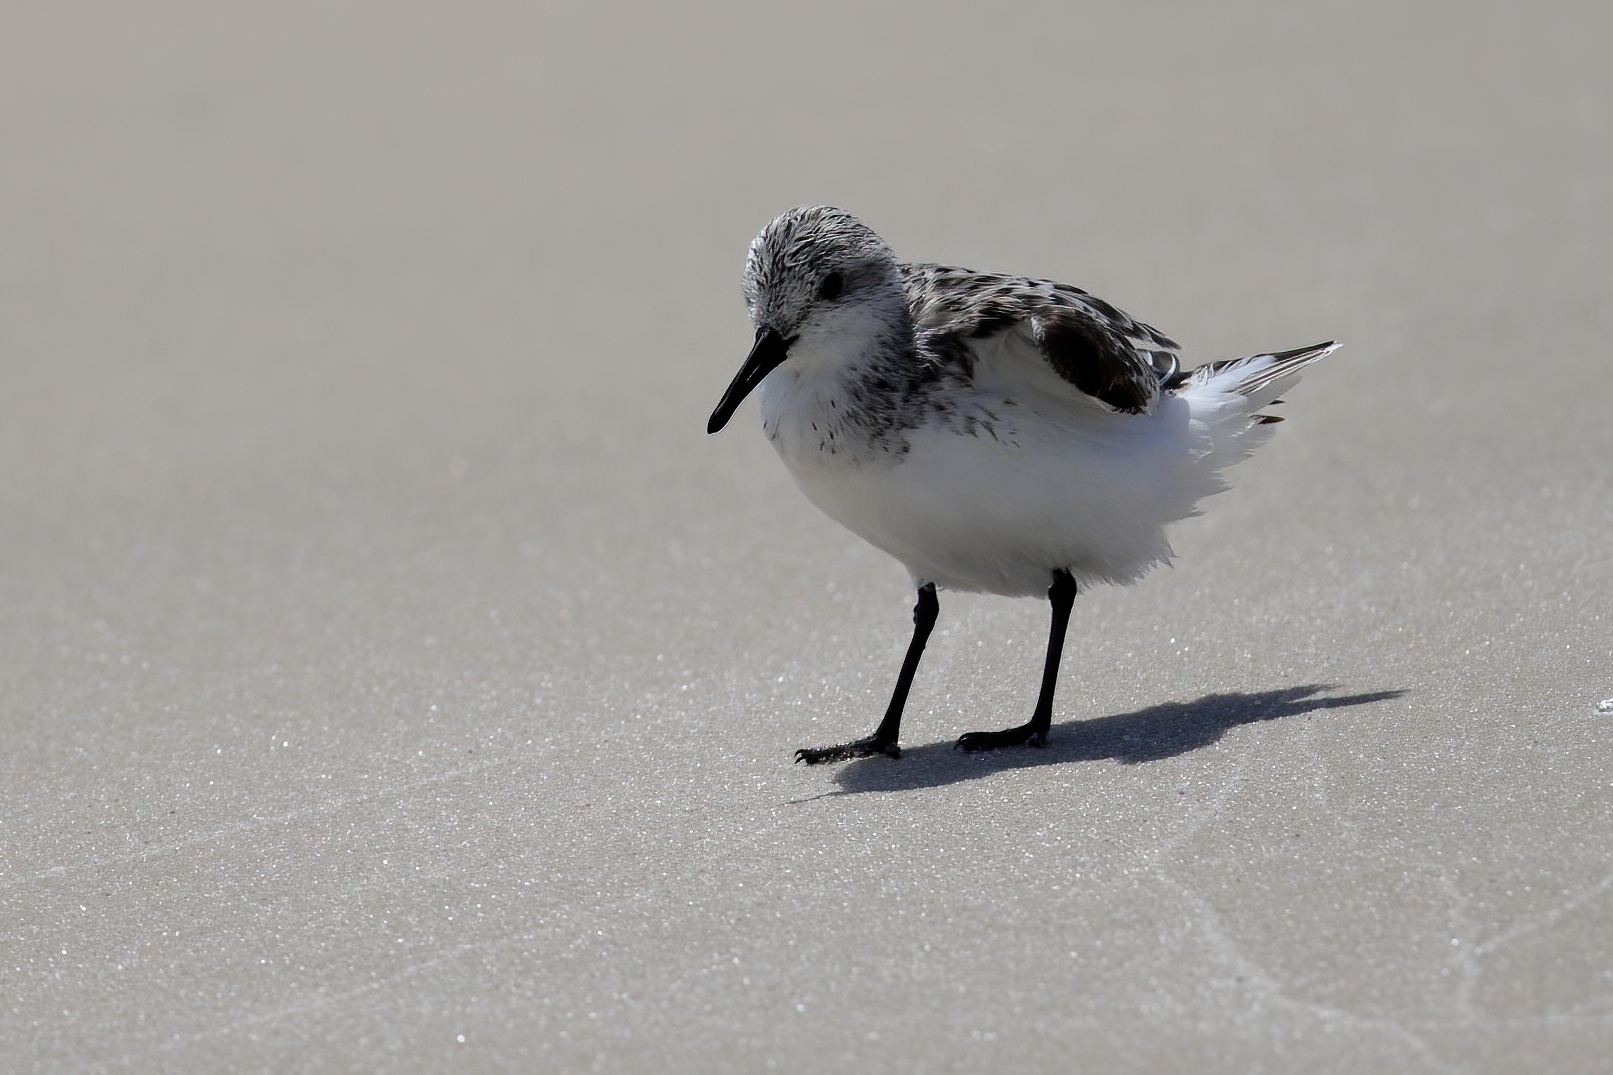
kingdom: Animalia
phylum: Chordata
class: Aves
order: Charadriiformes
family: Scolopacidae
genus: Calidris
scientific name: Calidris alba
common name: Sanderling
